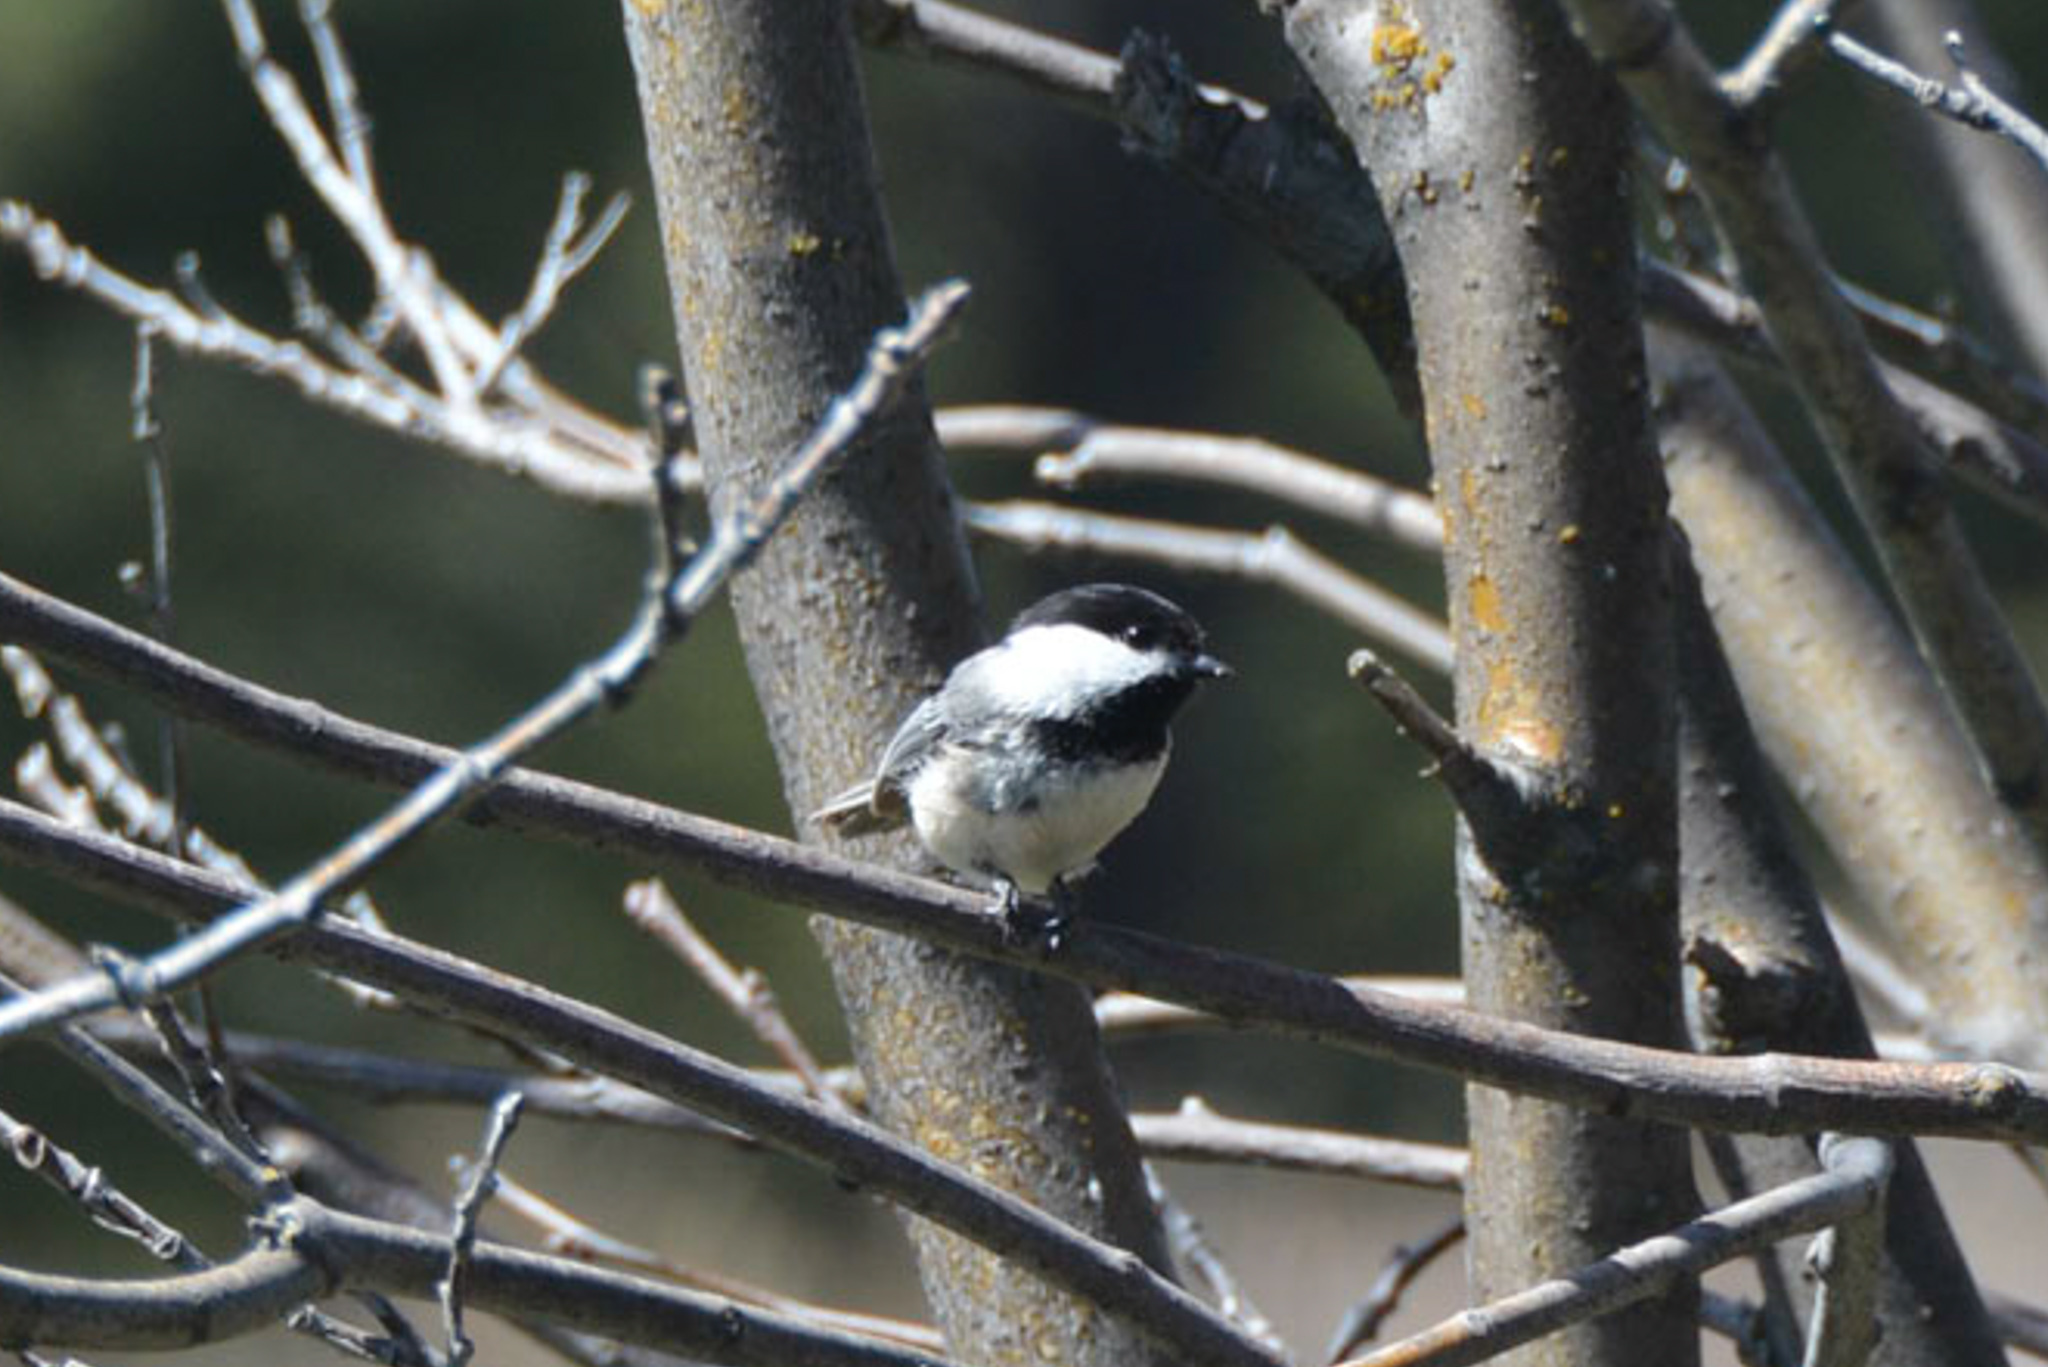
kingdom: Animalia
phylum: Chordata
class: Aves
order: Passeriformes
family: Paridae
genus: Poecile
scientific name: Poecile atricapillus
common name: Black-capped chickadee
